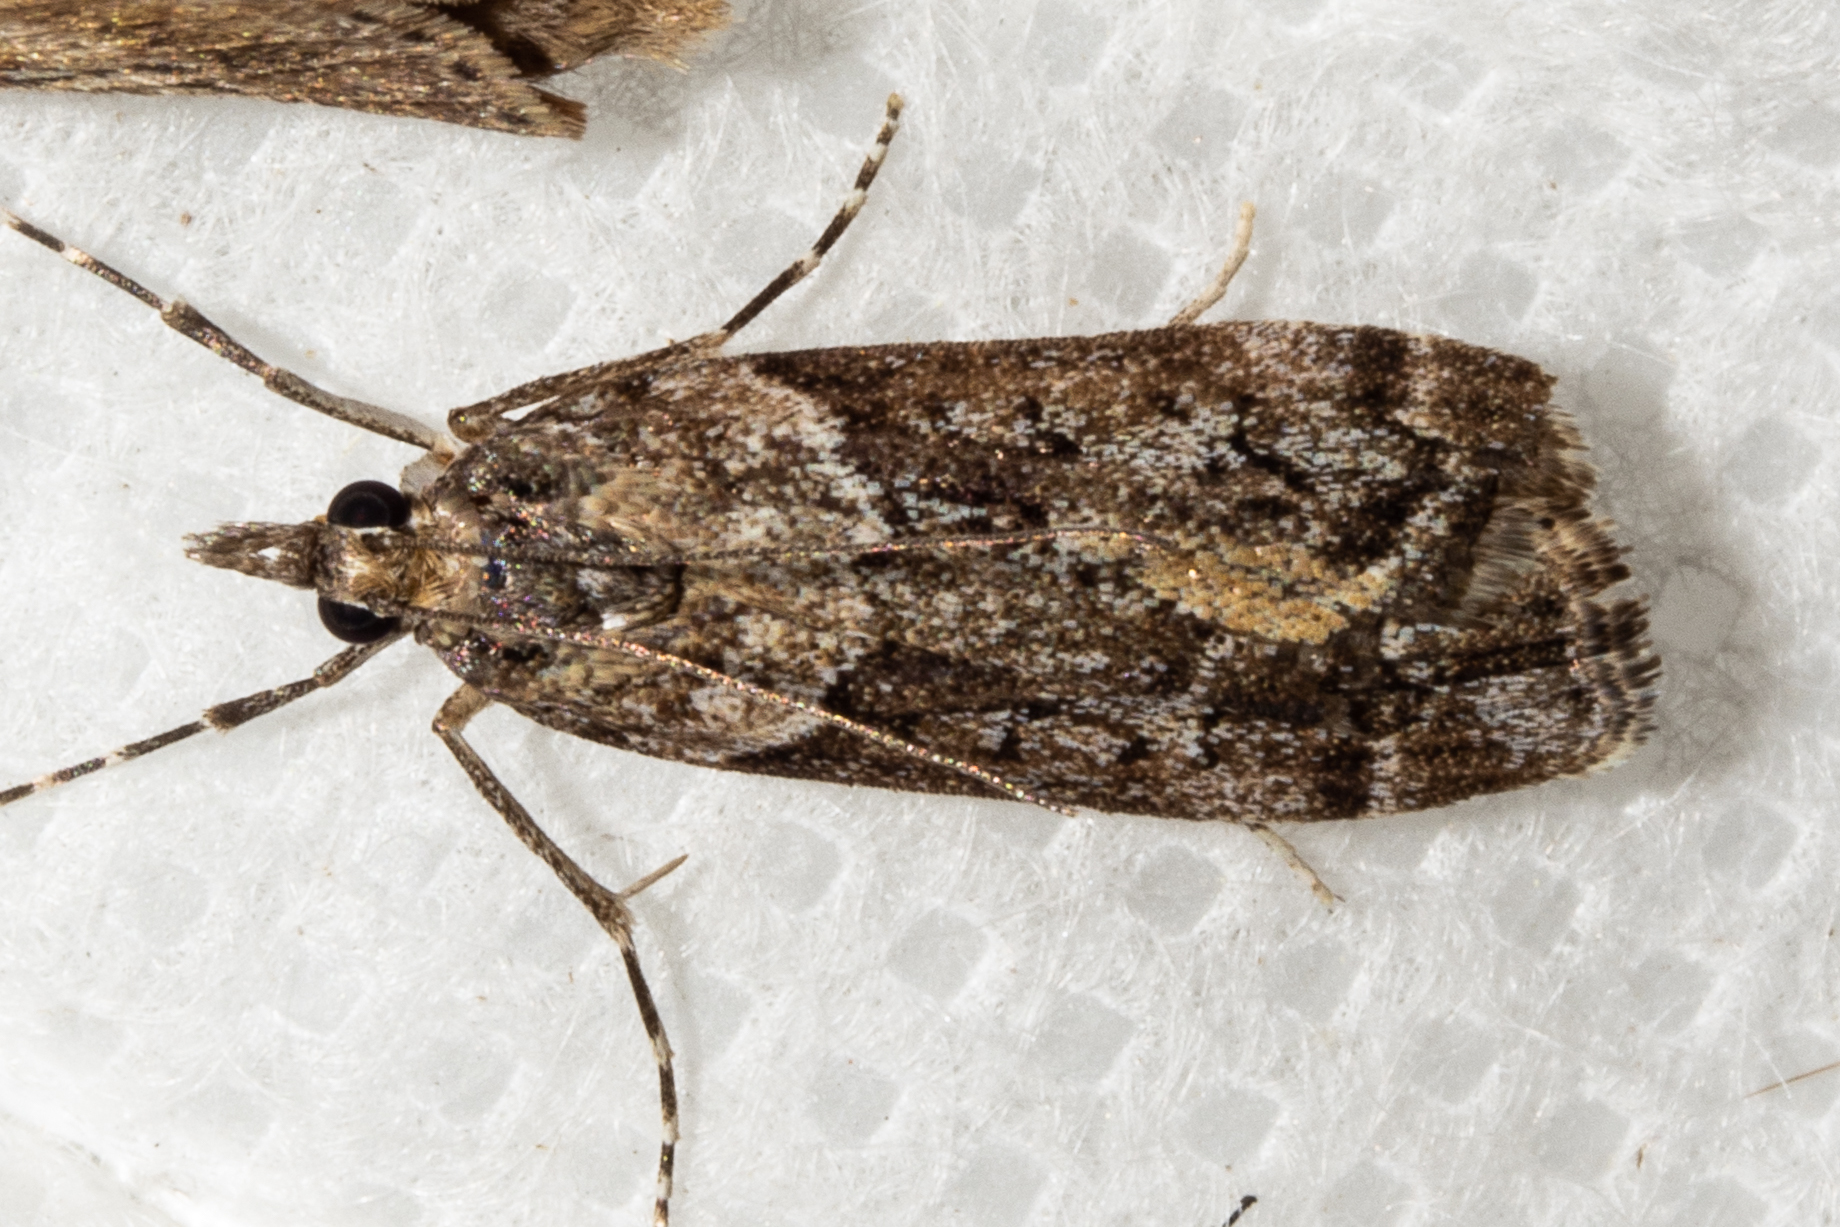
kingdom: Animalia
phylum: Arthropoda
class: Insecta
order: Lepidoptera
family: Crambidae
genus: Eudonia
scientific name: Eudonia submarginalis
